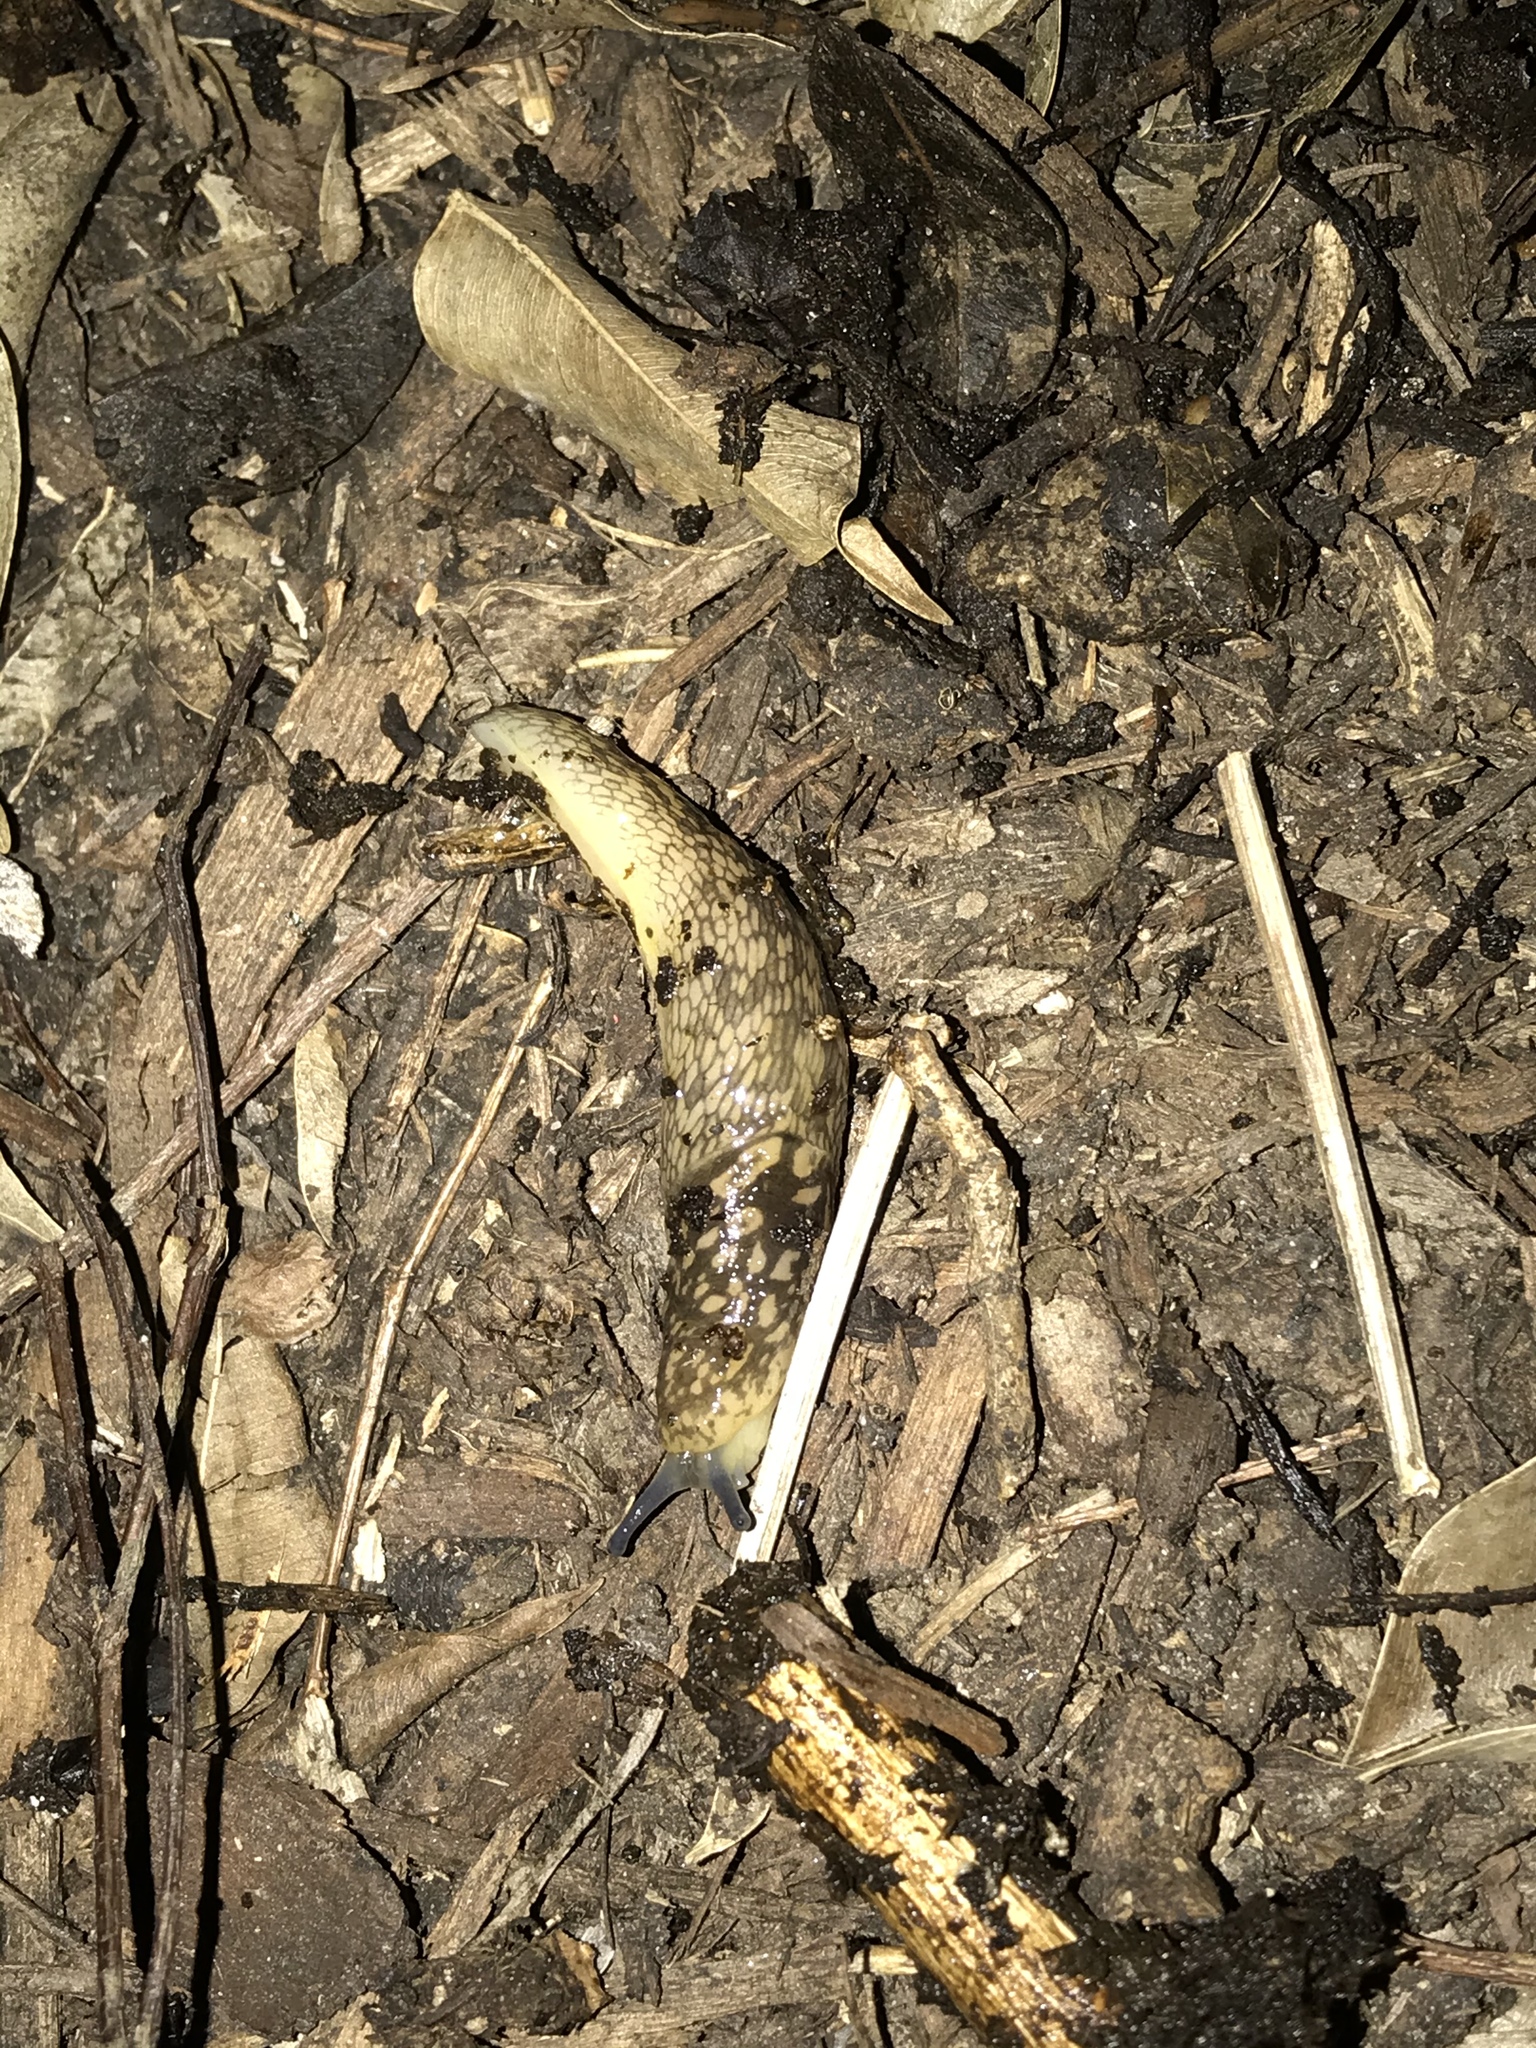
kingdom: Animalia
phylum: Mollusca
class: Gastropoda
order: Stylommatophora
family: Limacidae
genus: Limacus
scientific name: Limacus flavus
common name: Yellow gardenslug
